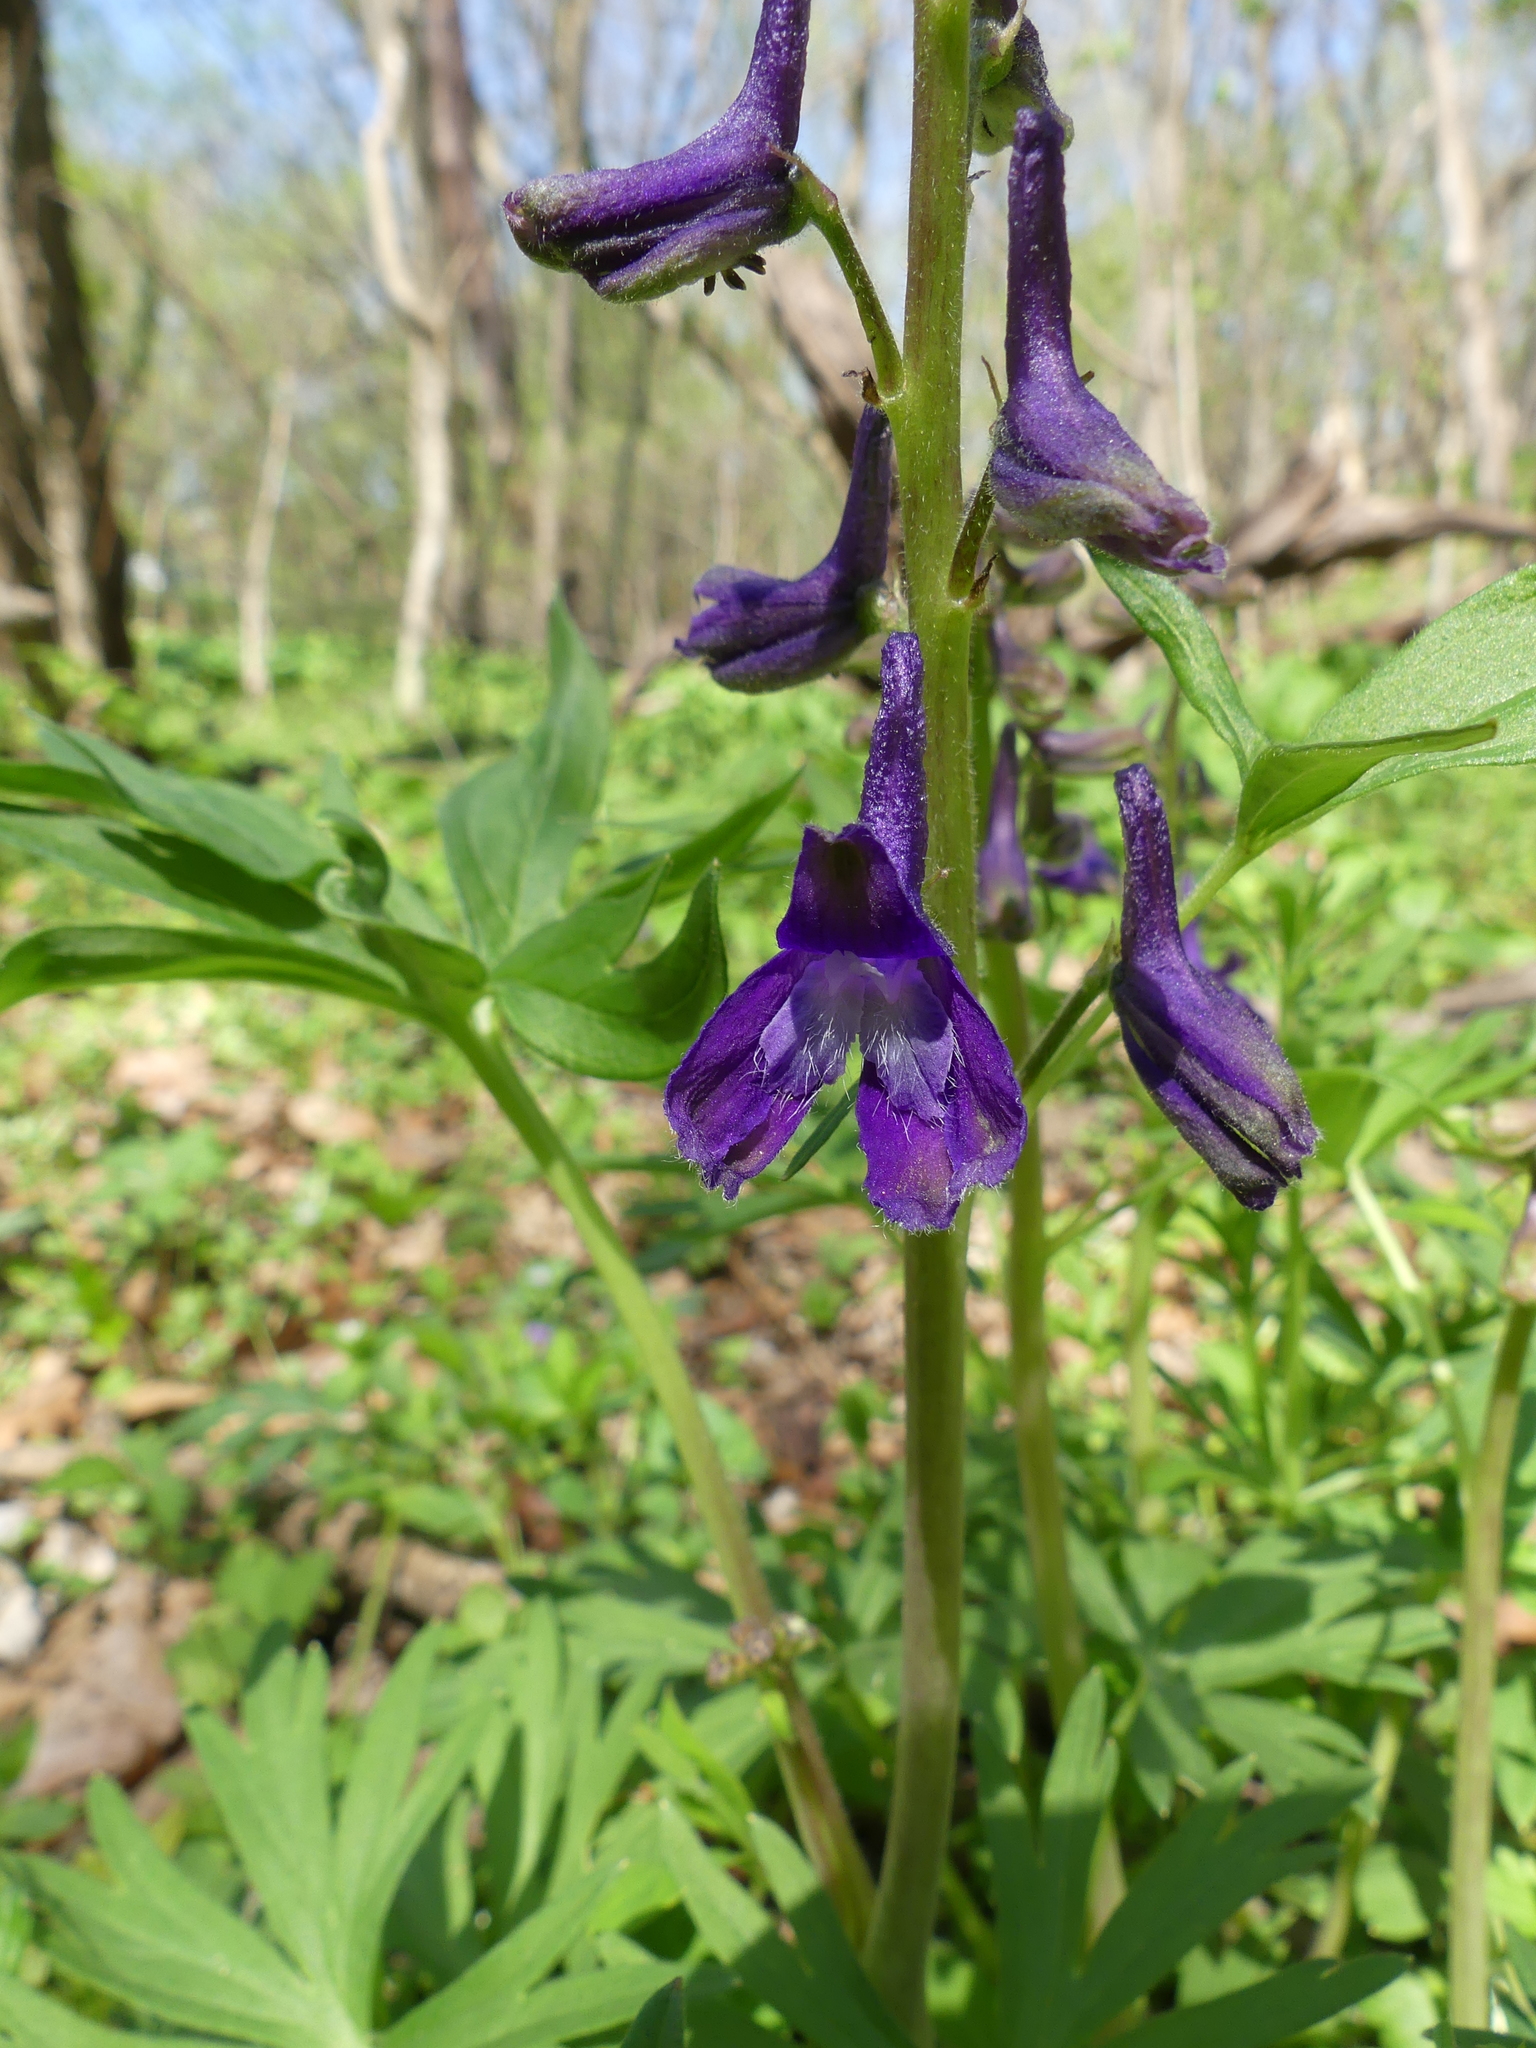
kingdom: Plantae
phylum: Tracheophyta
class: Magnoliopsida
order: Ranunculales
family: Ranunculaceae
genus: Delphinium
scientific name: Delphinium tricorne
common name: Dwarf larkspur
